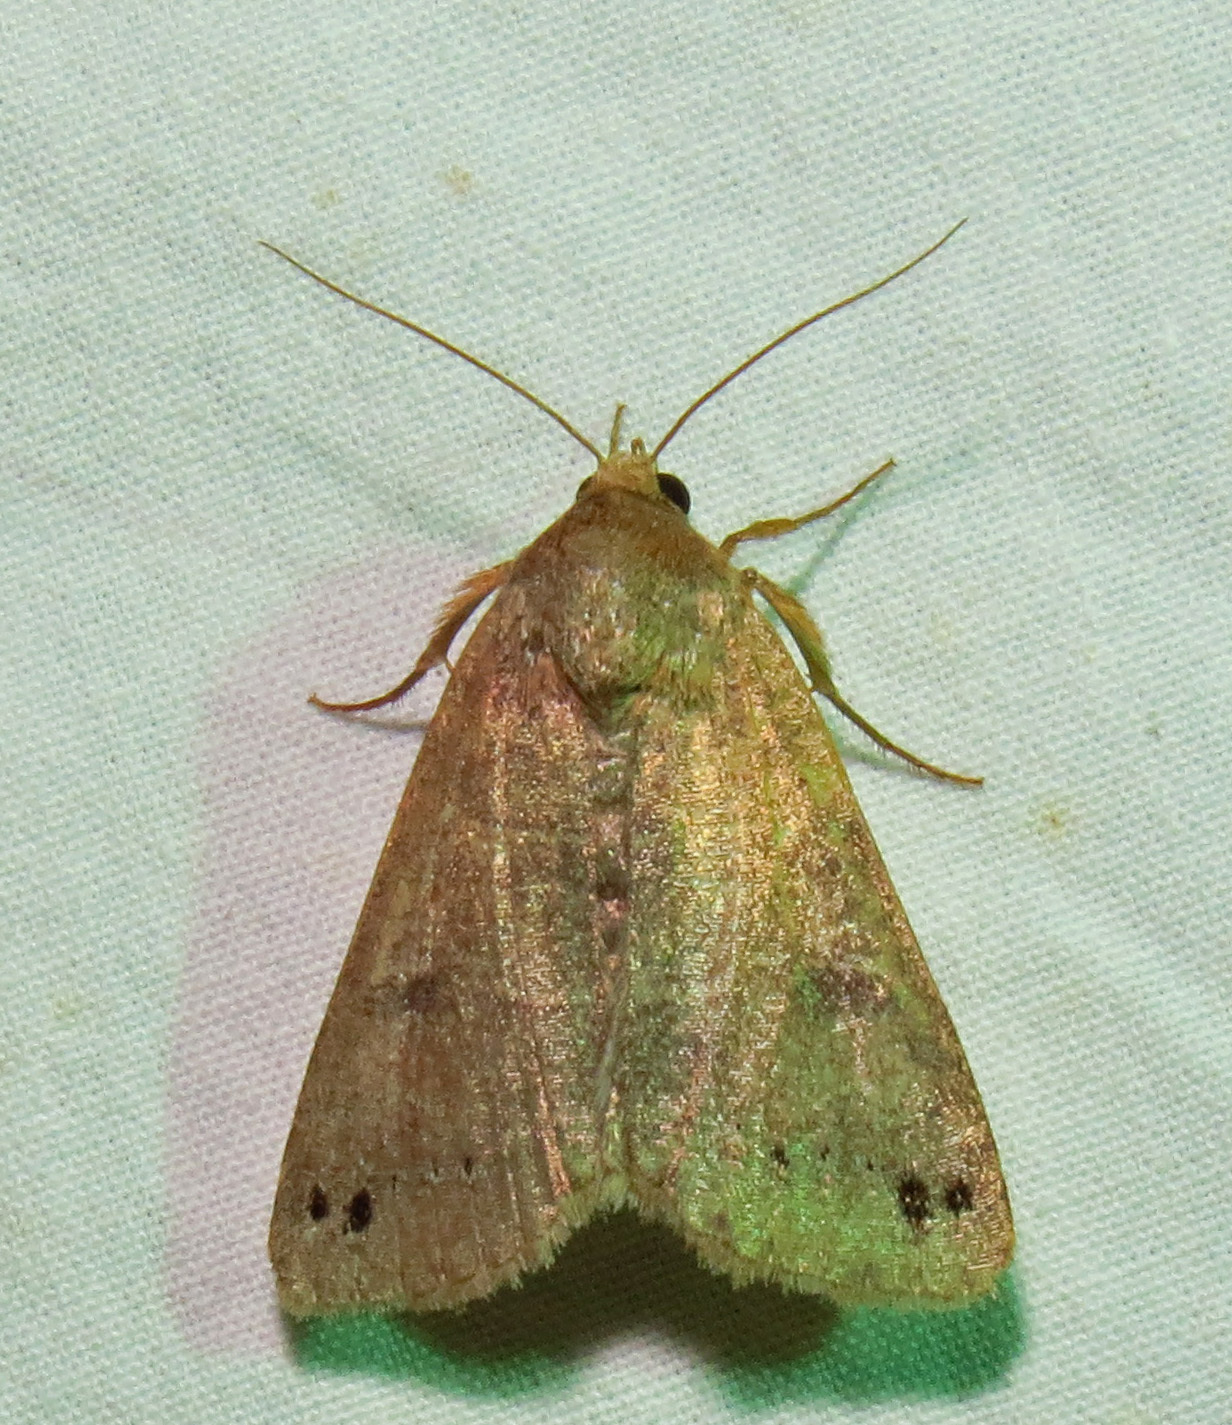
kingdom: Animalia
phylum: Arthropoda
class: Insecta
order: Lepidoptera
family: Erebidae
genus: Cissusa
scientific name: Cissusa spadix
